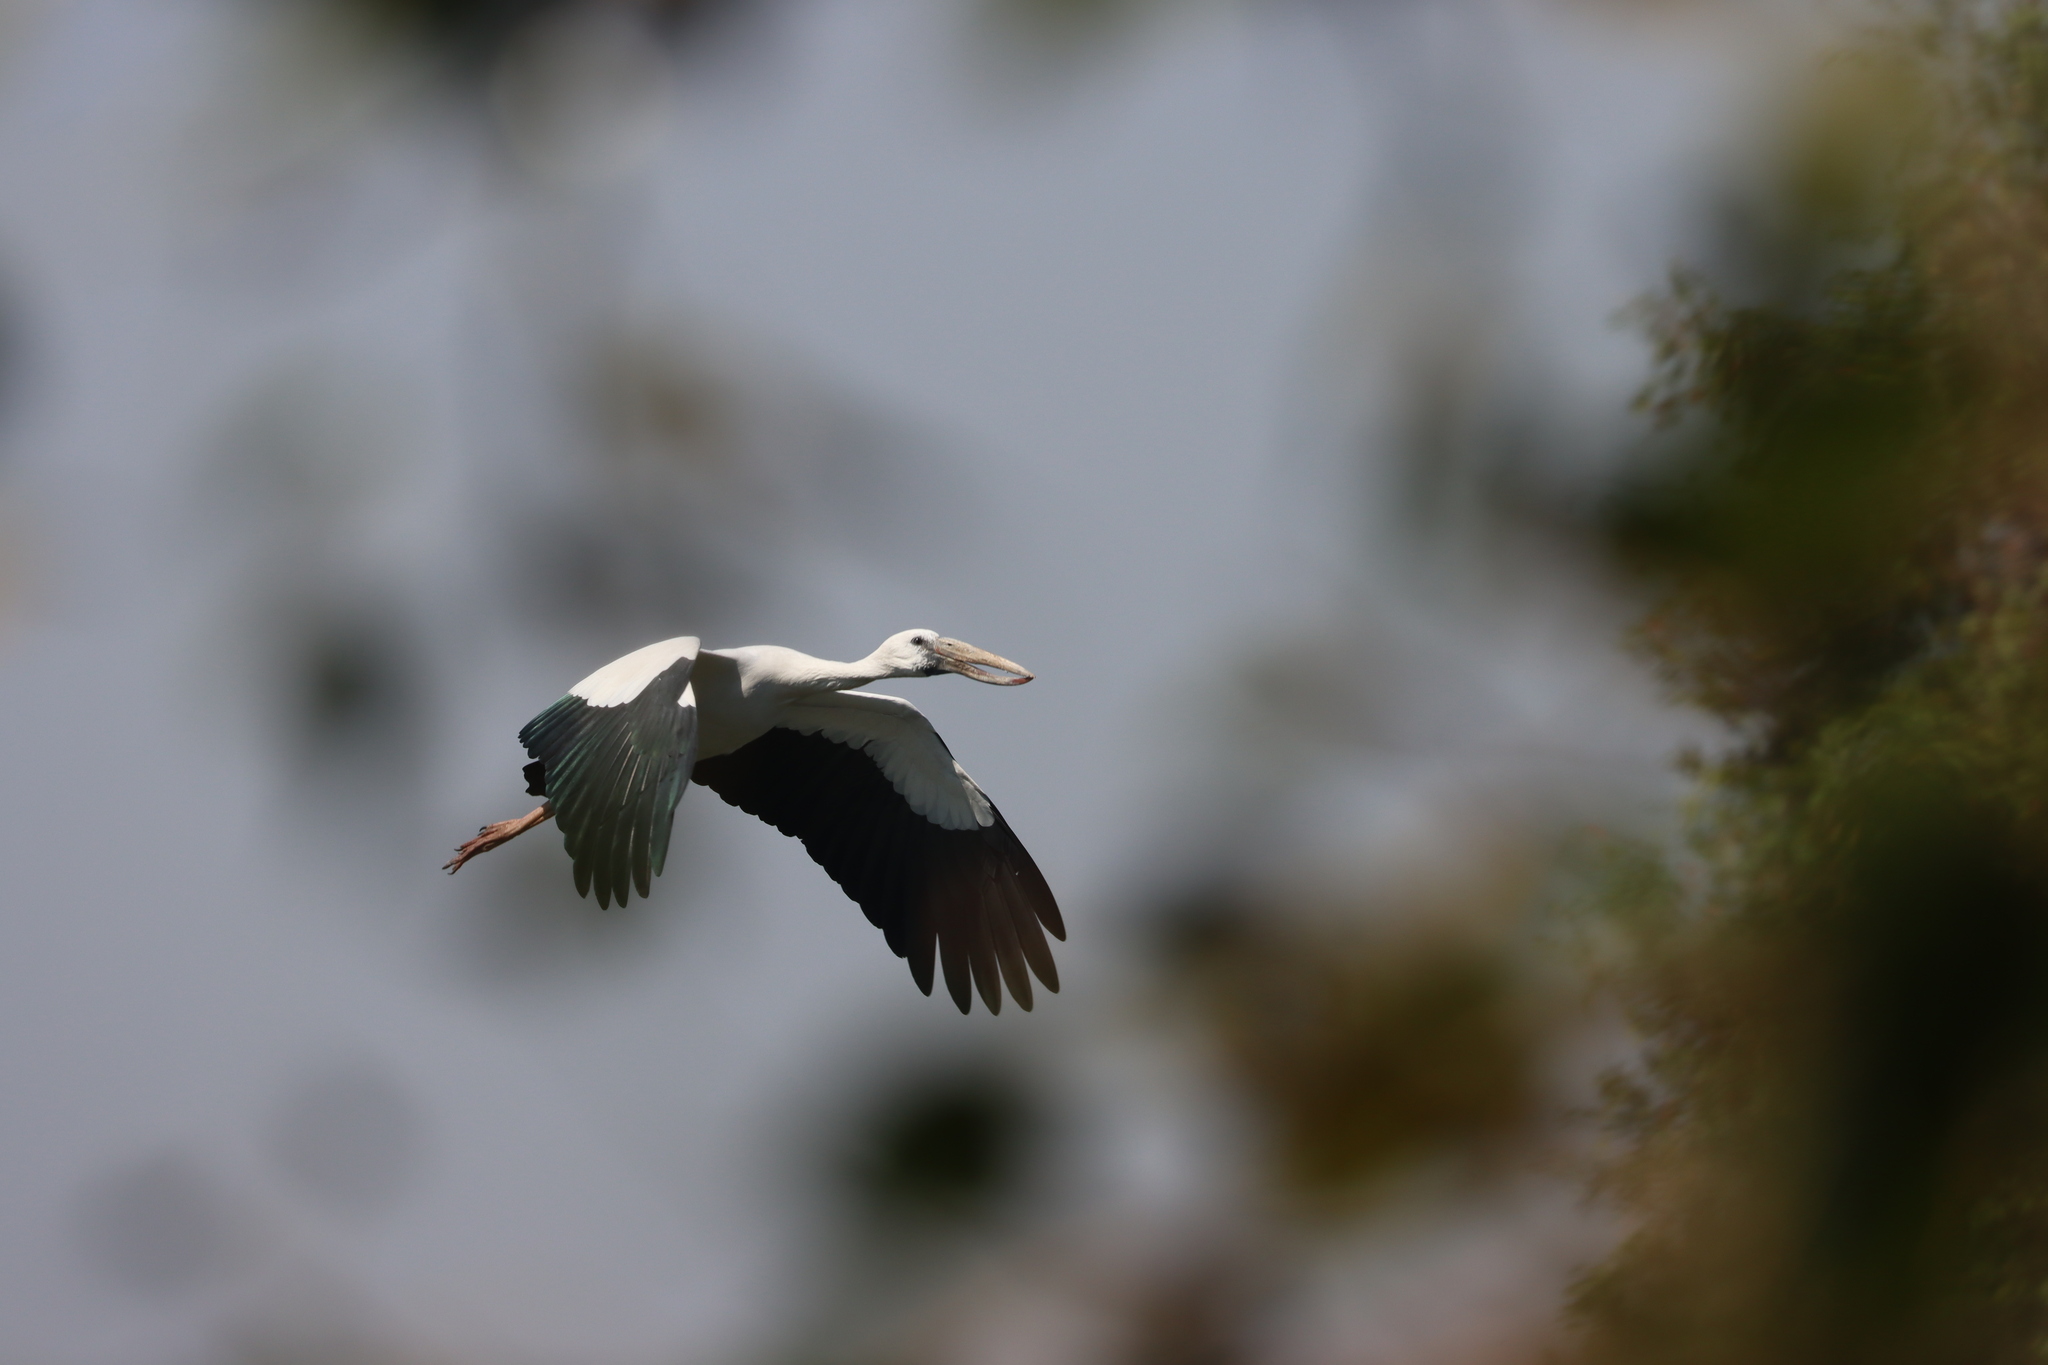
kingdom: Animalia
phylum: Chordata
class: Aves
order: Ciconiiformes
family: Ciconiidae
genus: Anastomus
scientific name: Anastomus oscitans
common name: Asian openbill
